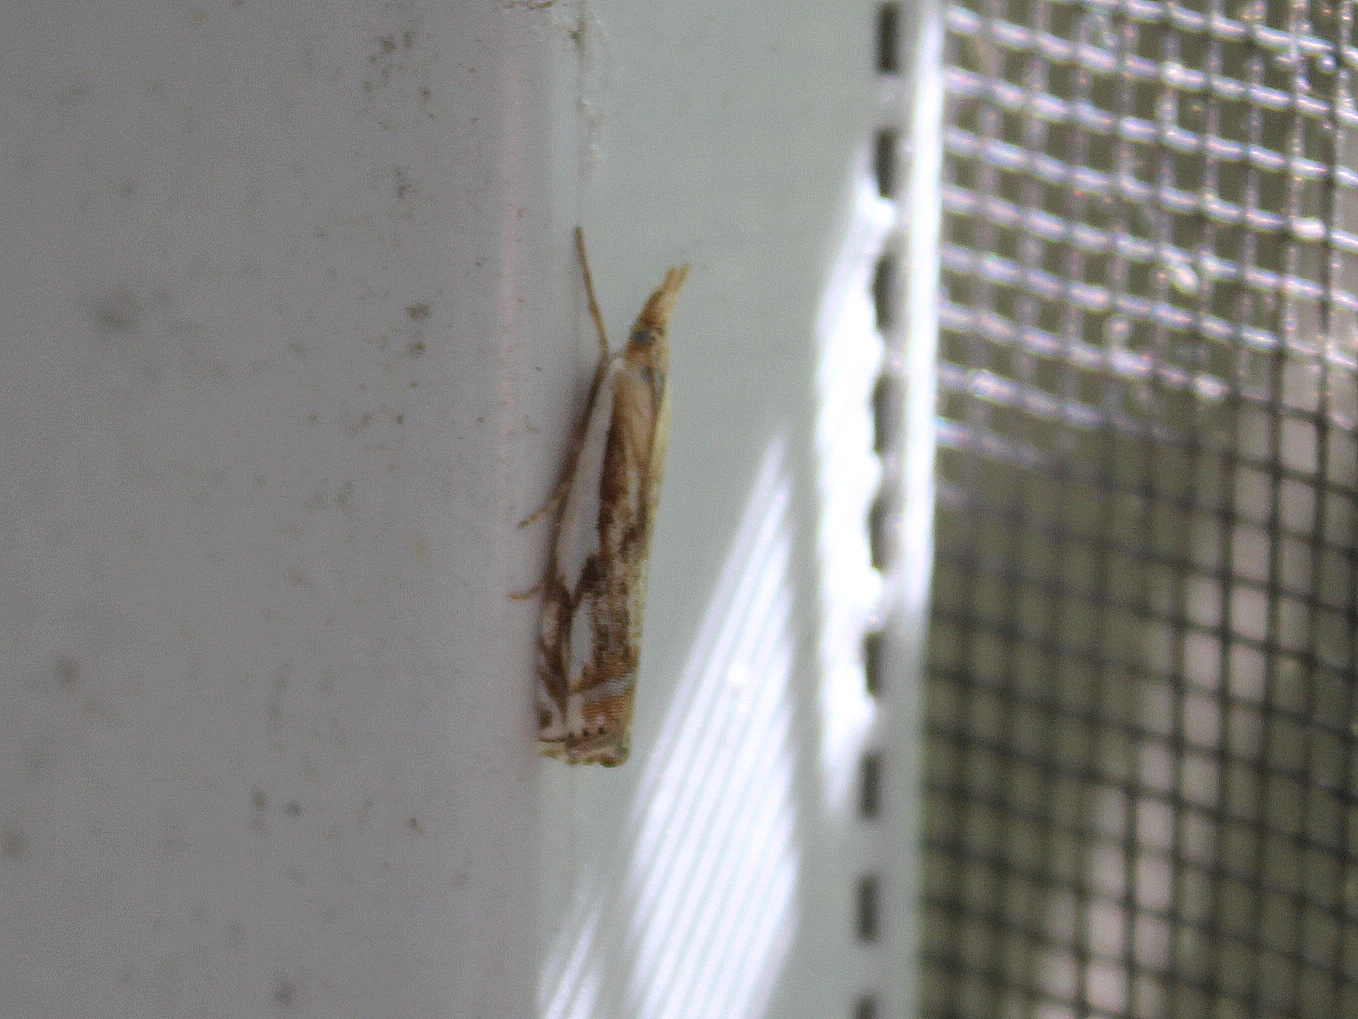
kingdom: Animalia
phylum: Arthropoda
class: Insecta
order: Lepidoptera
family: Crambidae
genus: Crambus
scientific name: Crambus agitatellus
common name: Double-banded grass-veneer
